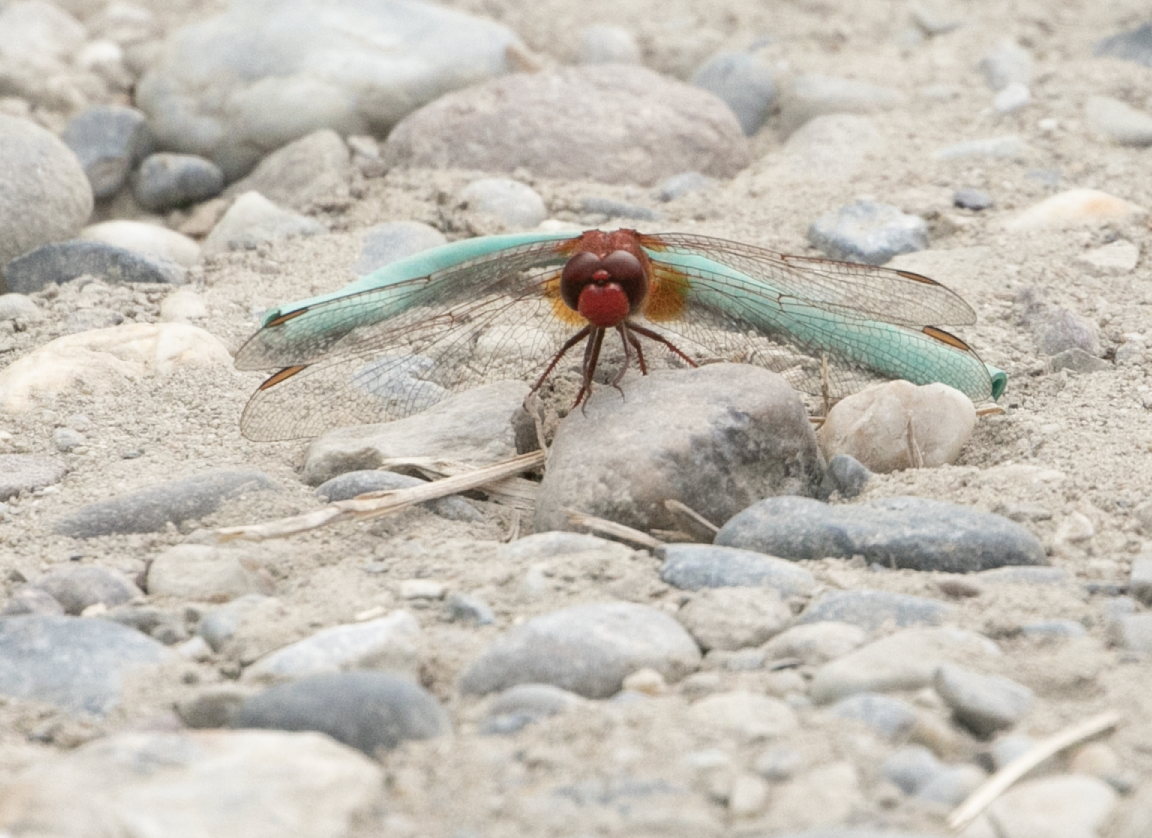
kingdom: Animalia
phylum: Arthropoda
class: Insecta
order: Odonata
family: Libellulidae
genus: Crocothemis
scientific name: Crocothemis erythraea
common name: Scarlet dragonfly
